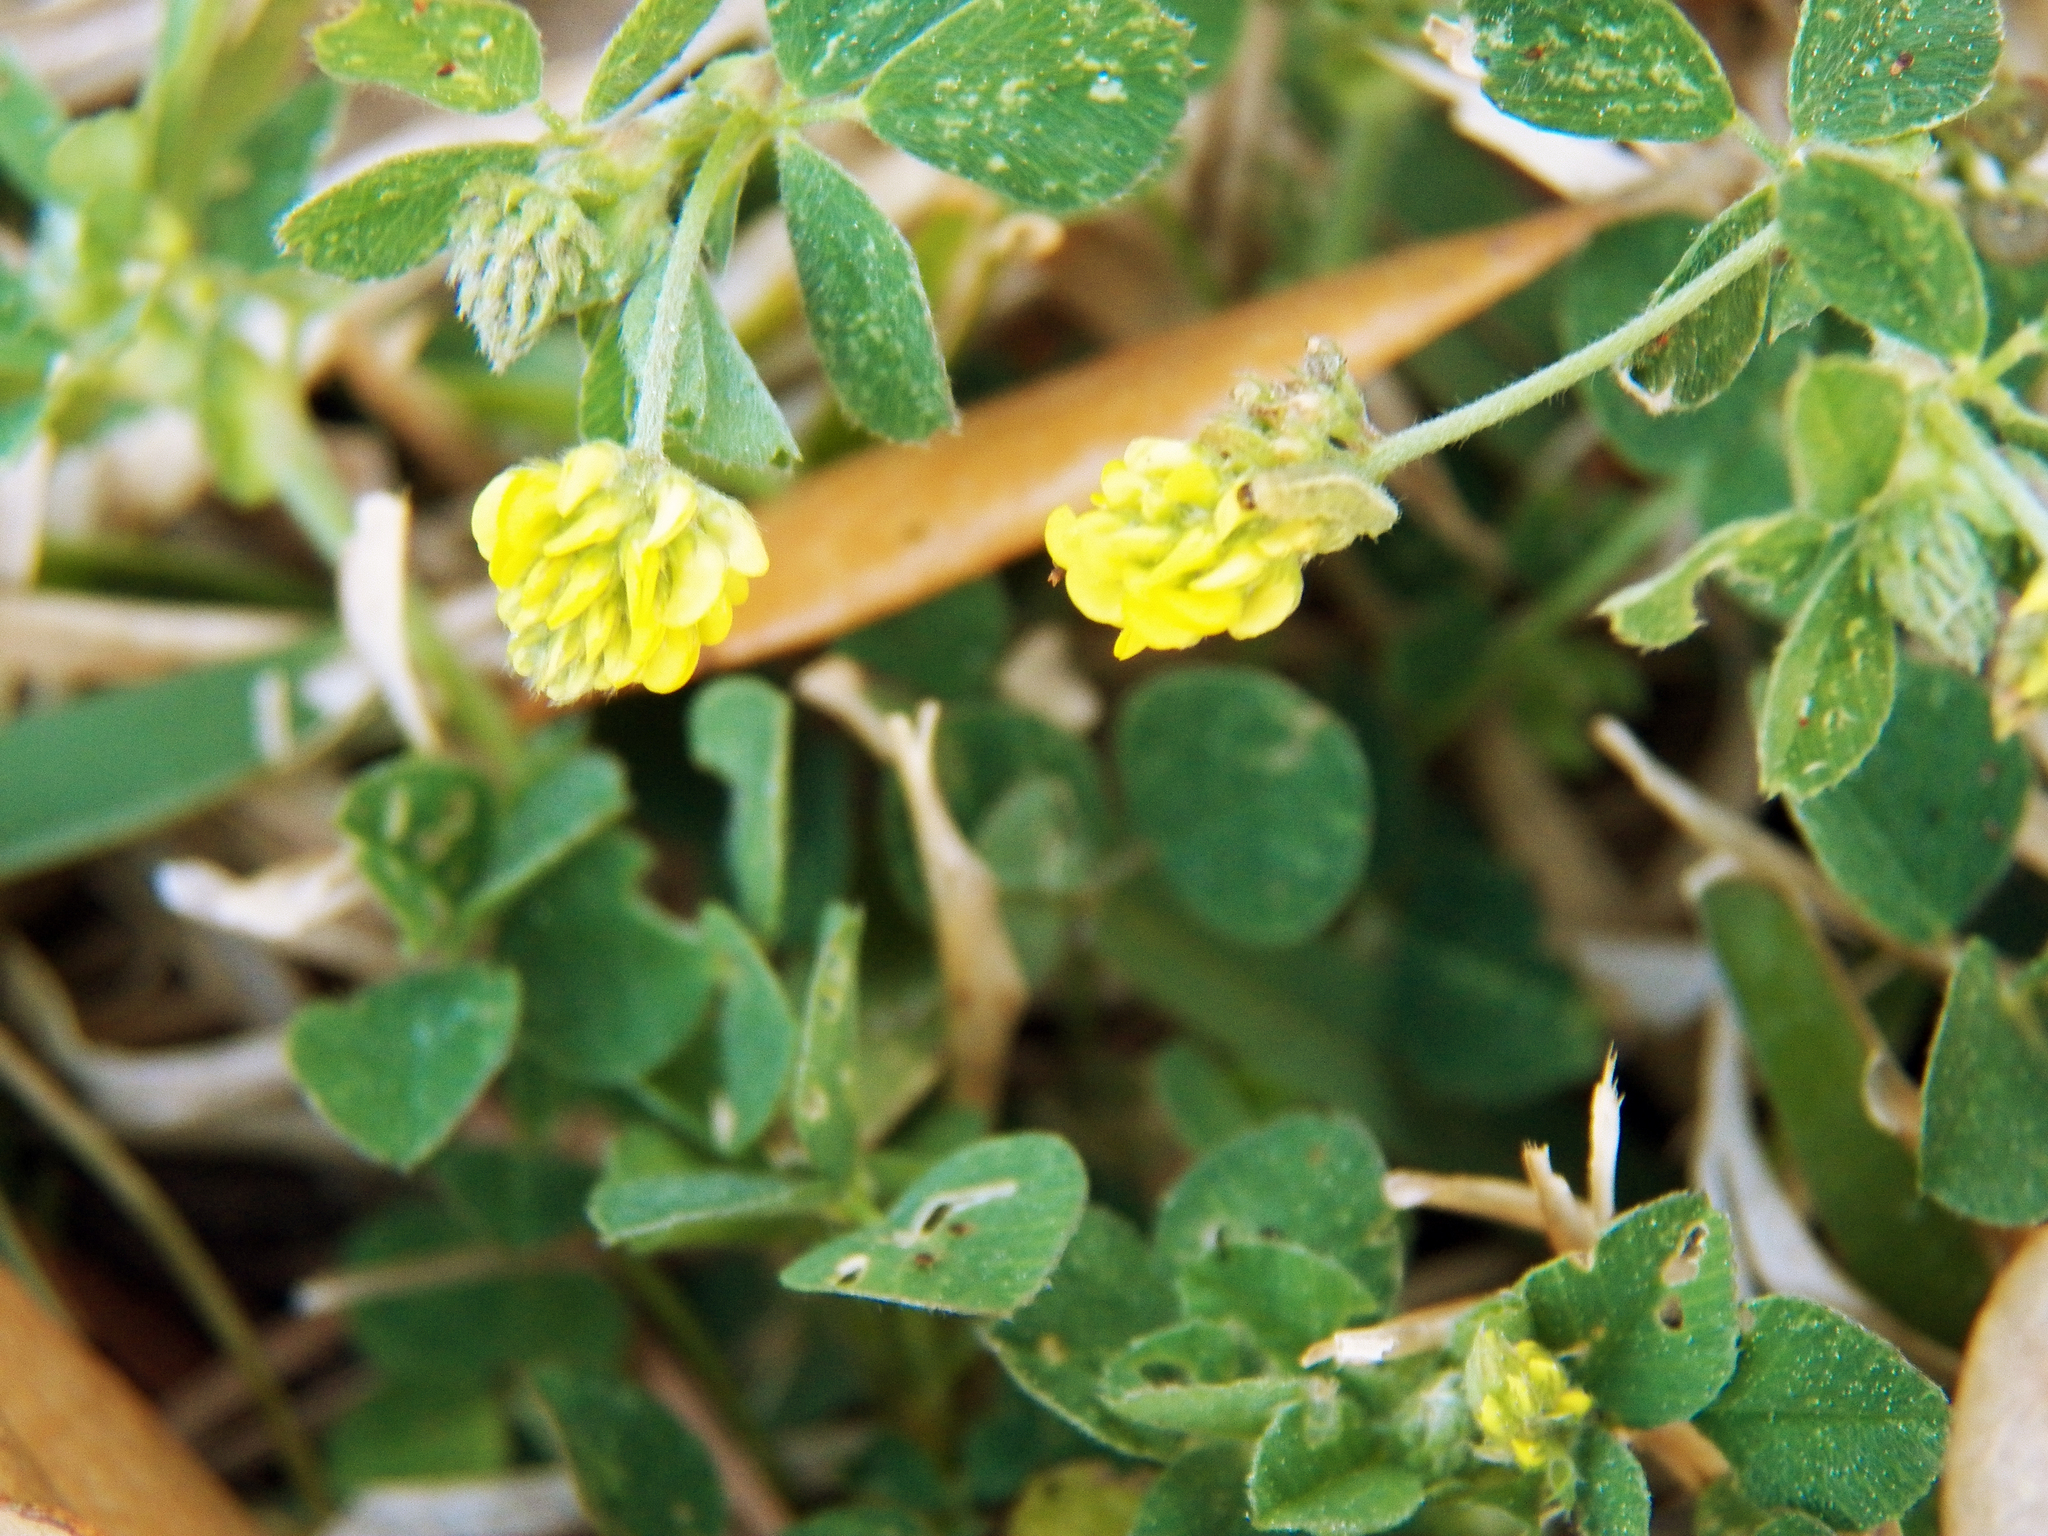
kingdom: Plantae
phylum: Tracheophyta
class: Magnoliopsida
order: Fabales
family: Fabaceae
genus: Medicago
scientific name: Medicago lupulina
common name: Black medick
